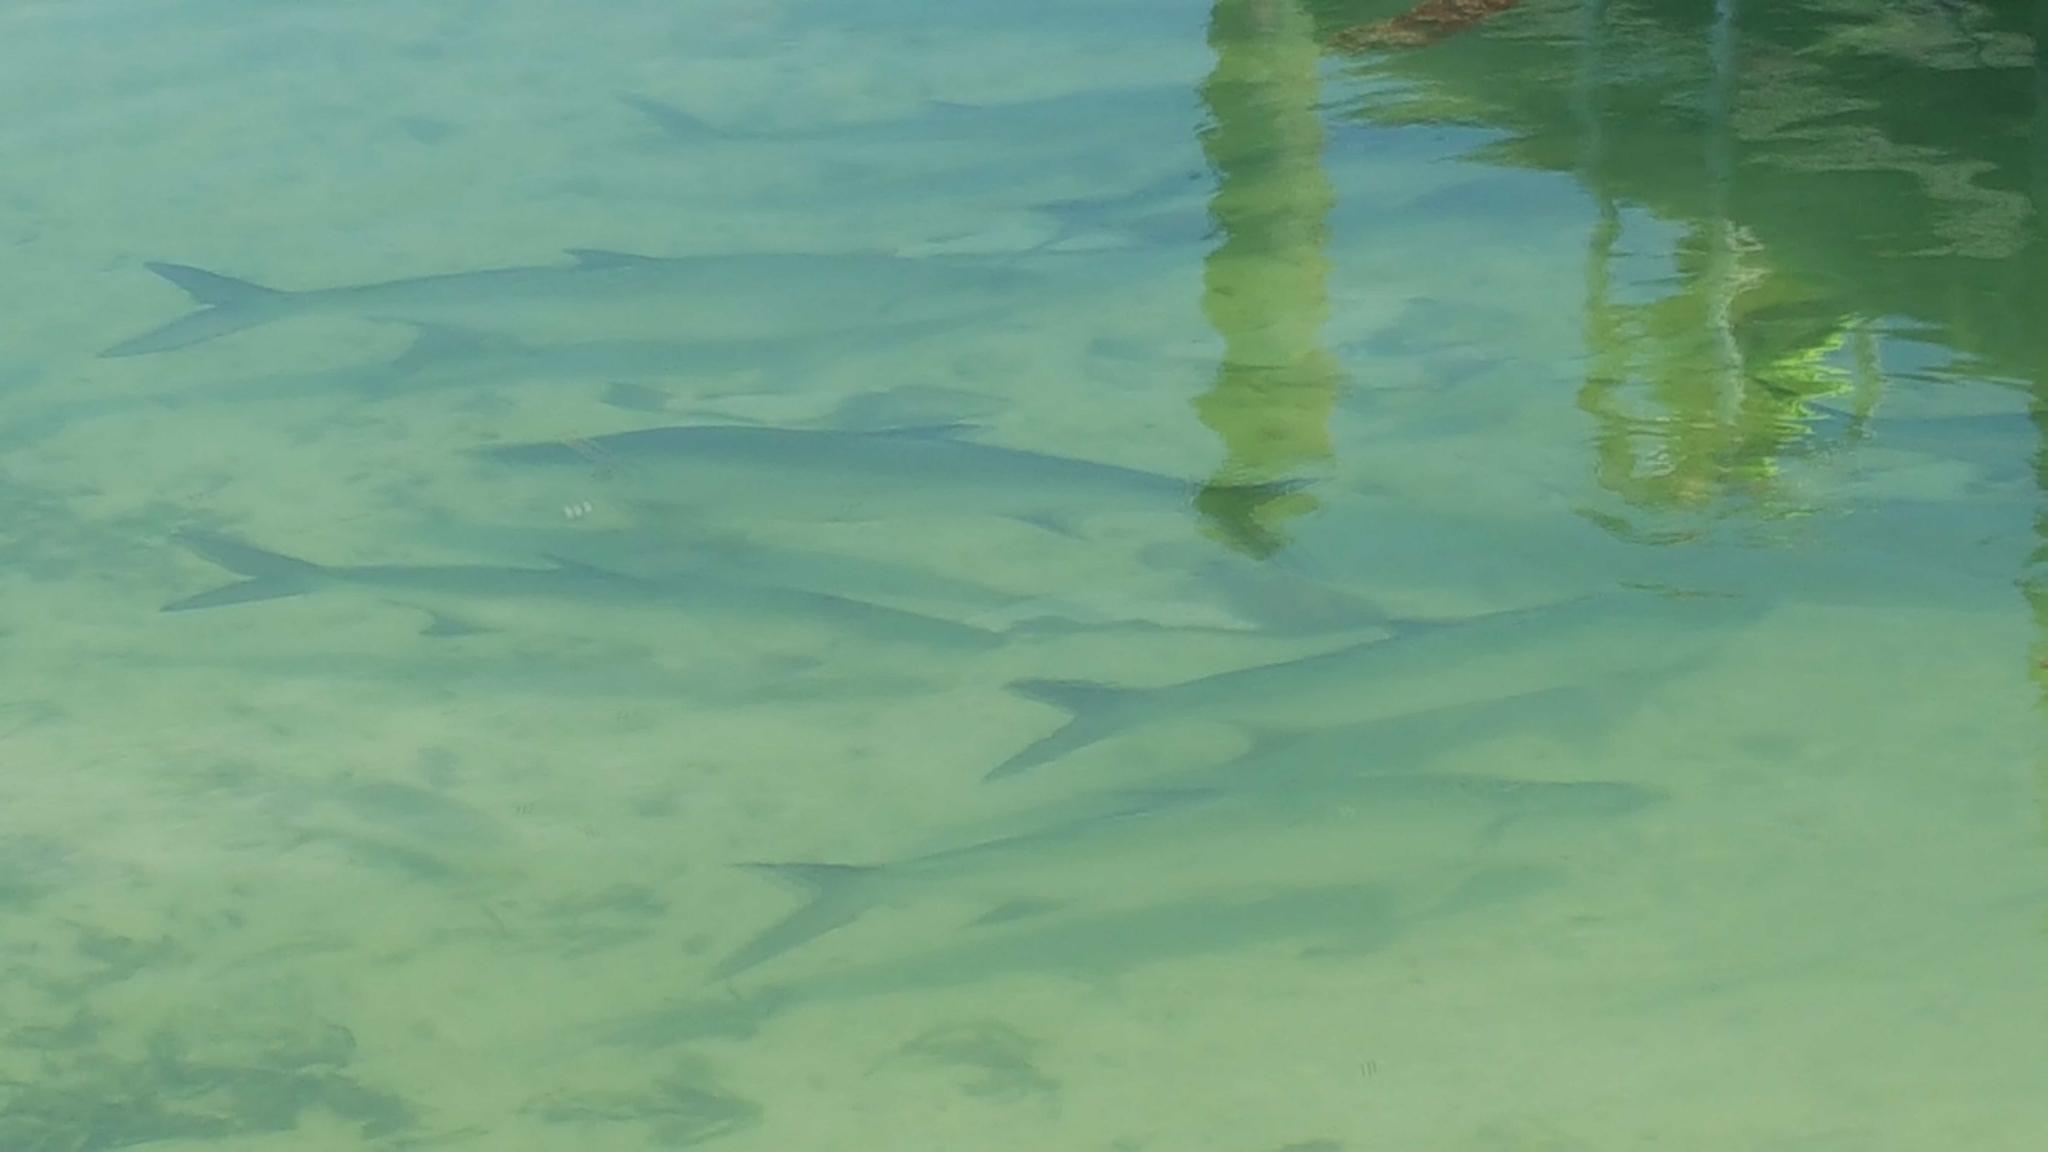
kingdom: Animalia
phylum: Chordata
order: Elopiformes
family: Megalopidae
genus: Megalops
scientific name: Megalops atlanticus
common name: Tarpon
